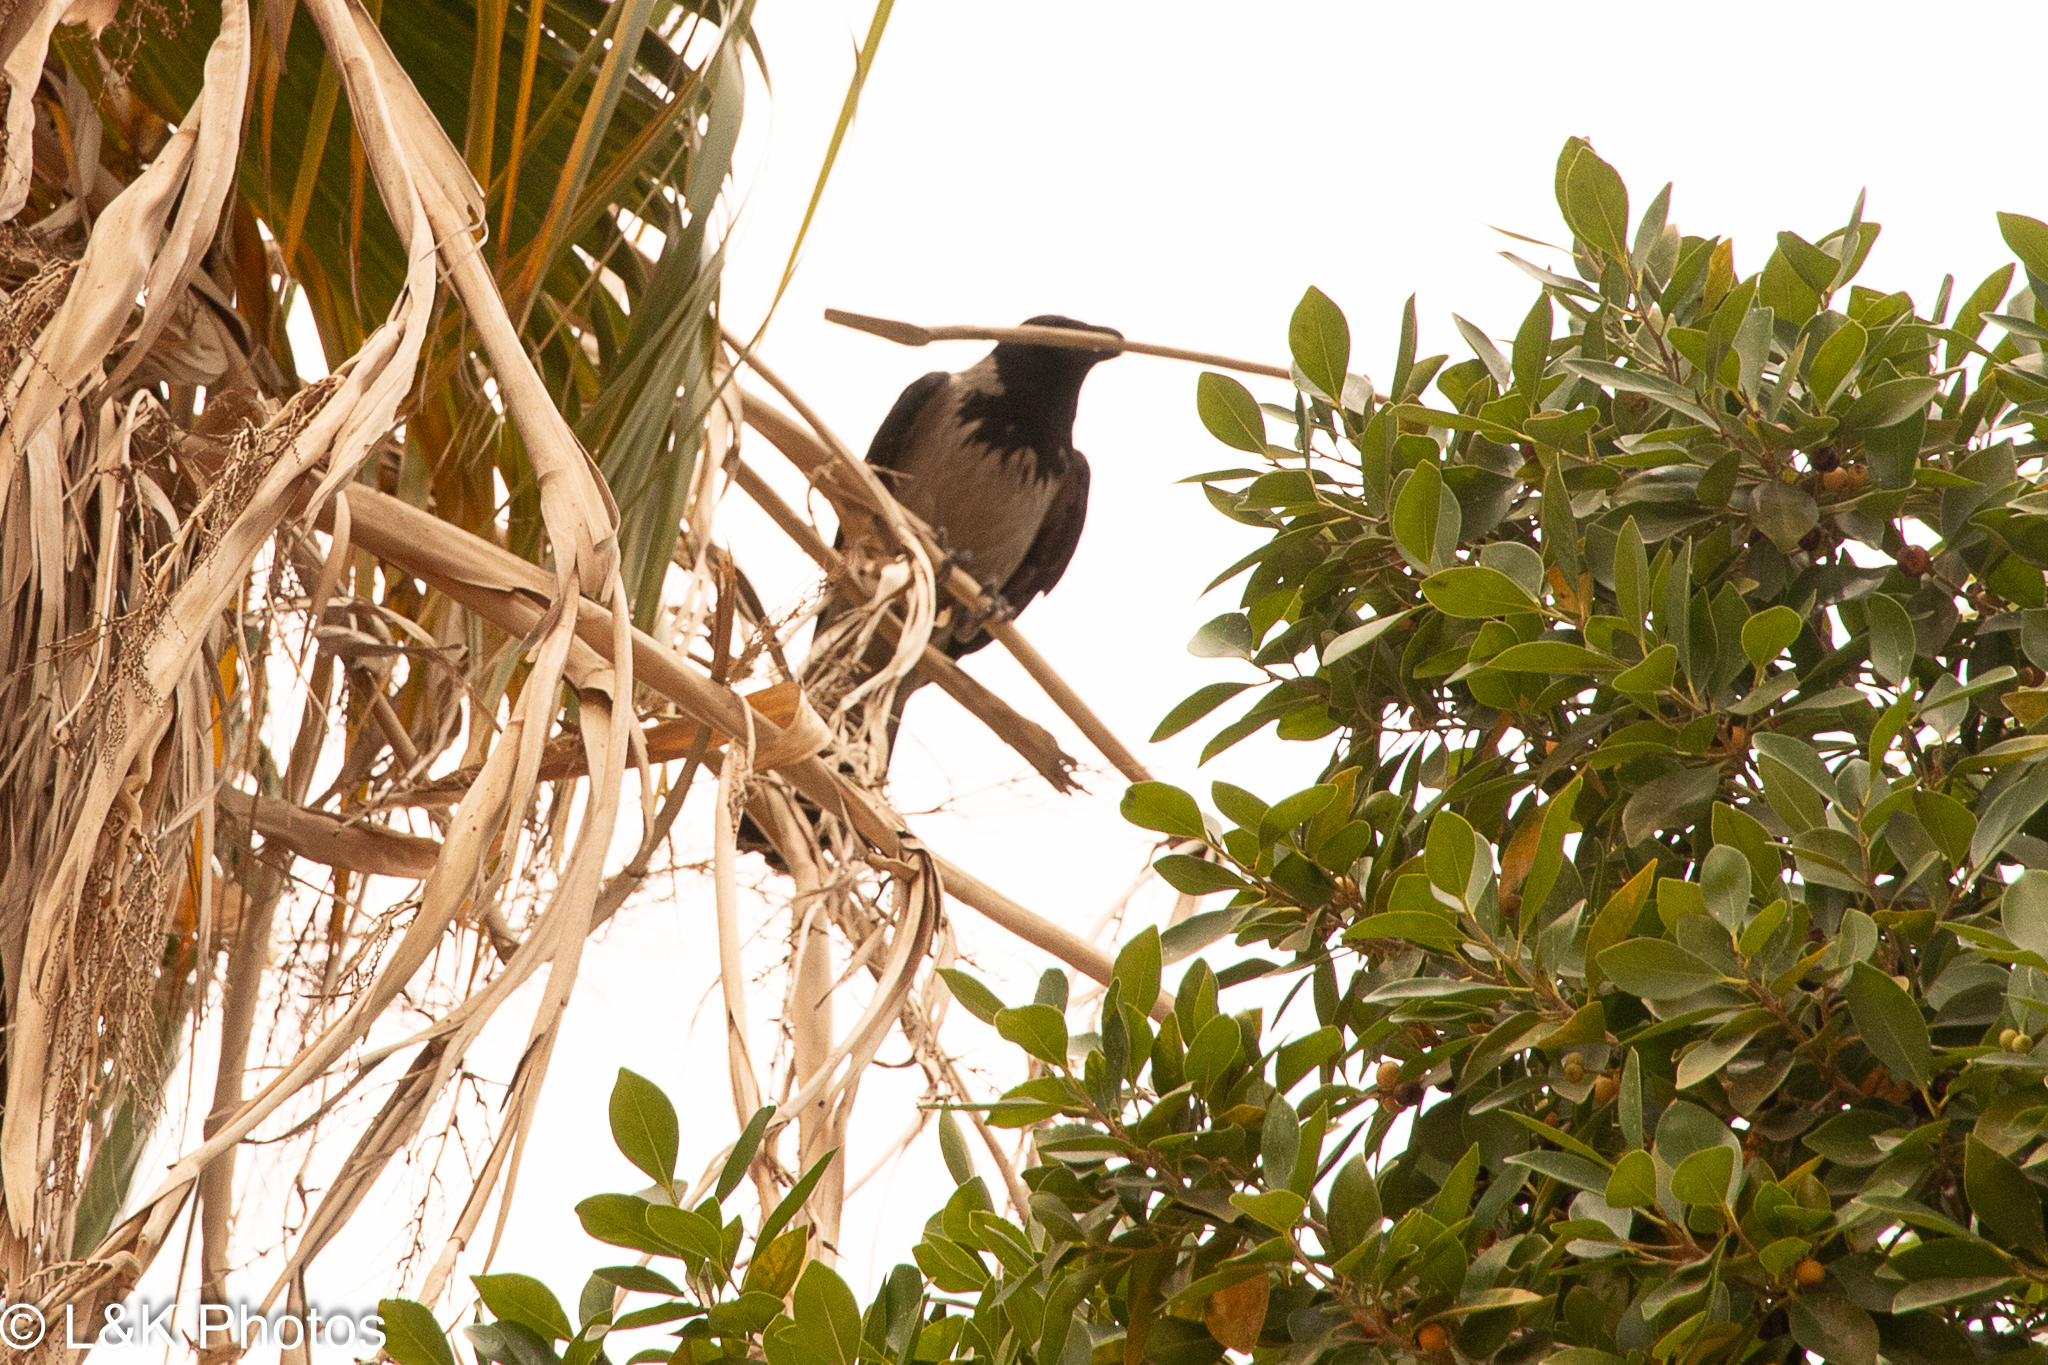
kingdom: Animalia
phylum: Chordata
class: Aves
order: Passeriformes
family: Corvidae
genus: Corvus
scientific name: Corvus cornix
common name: Hooded crow
